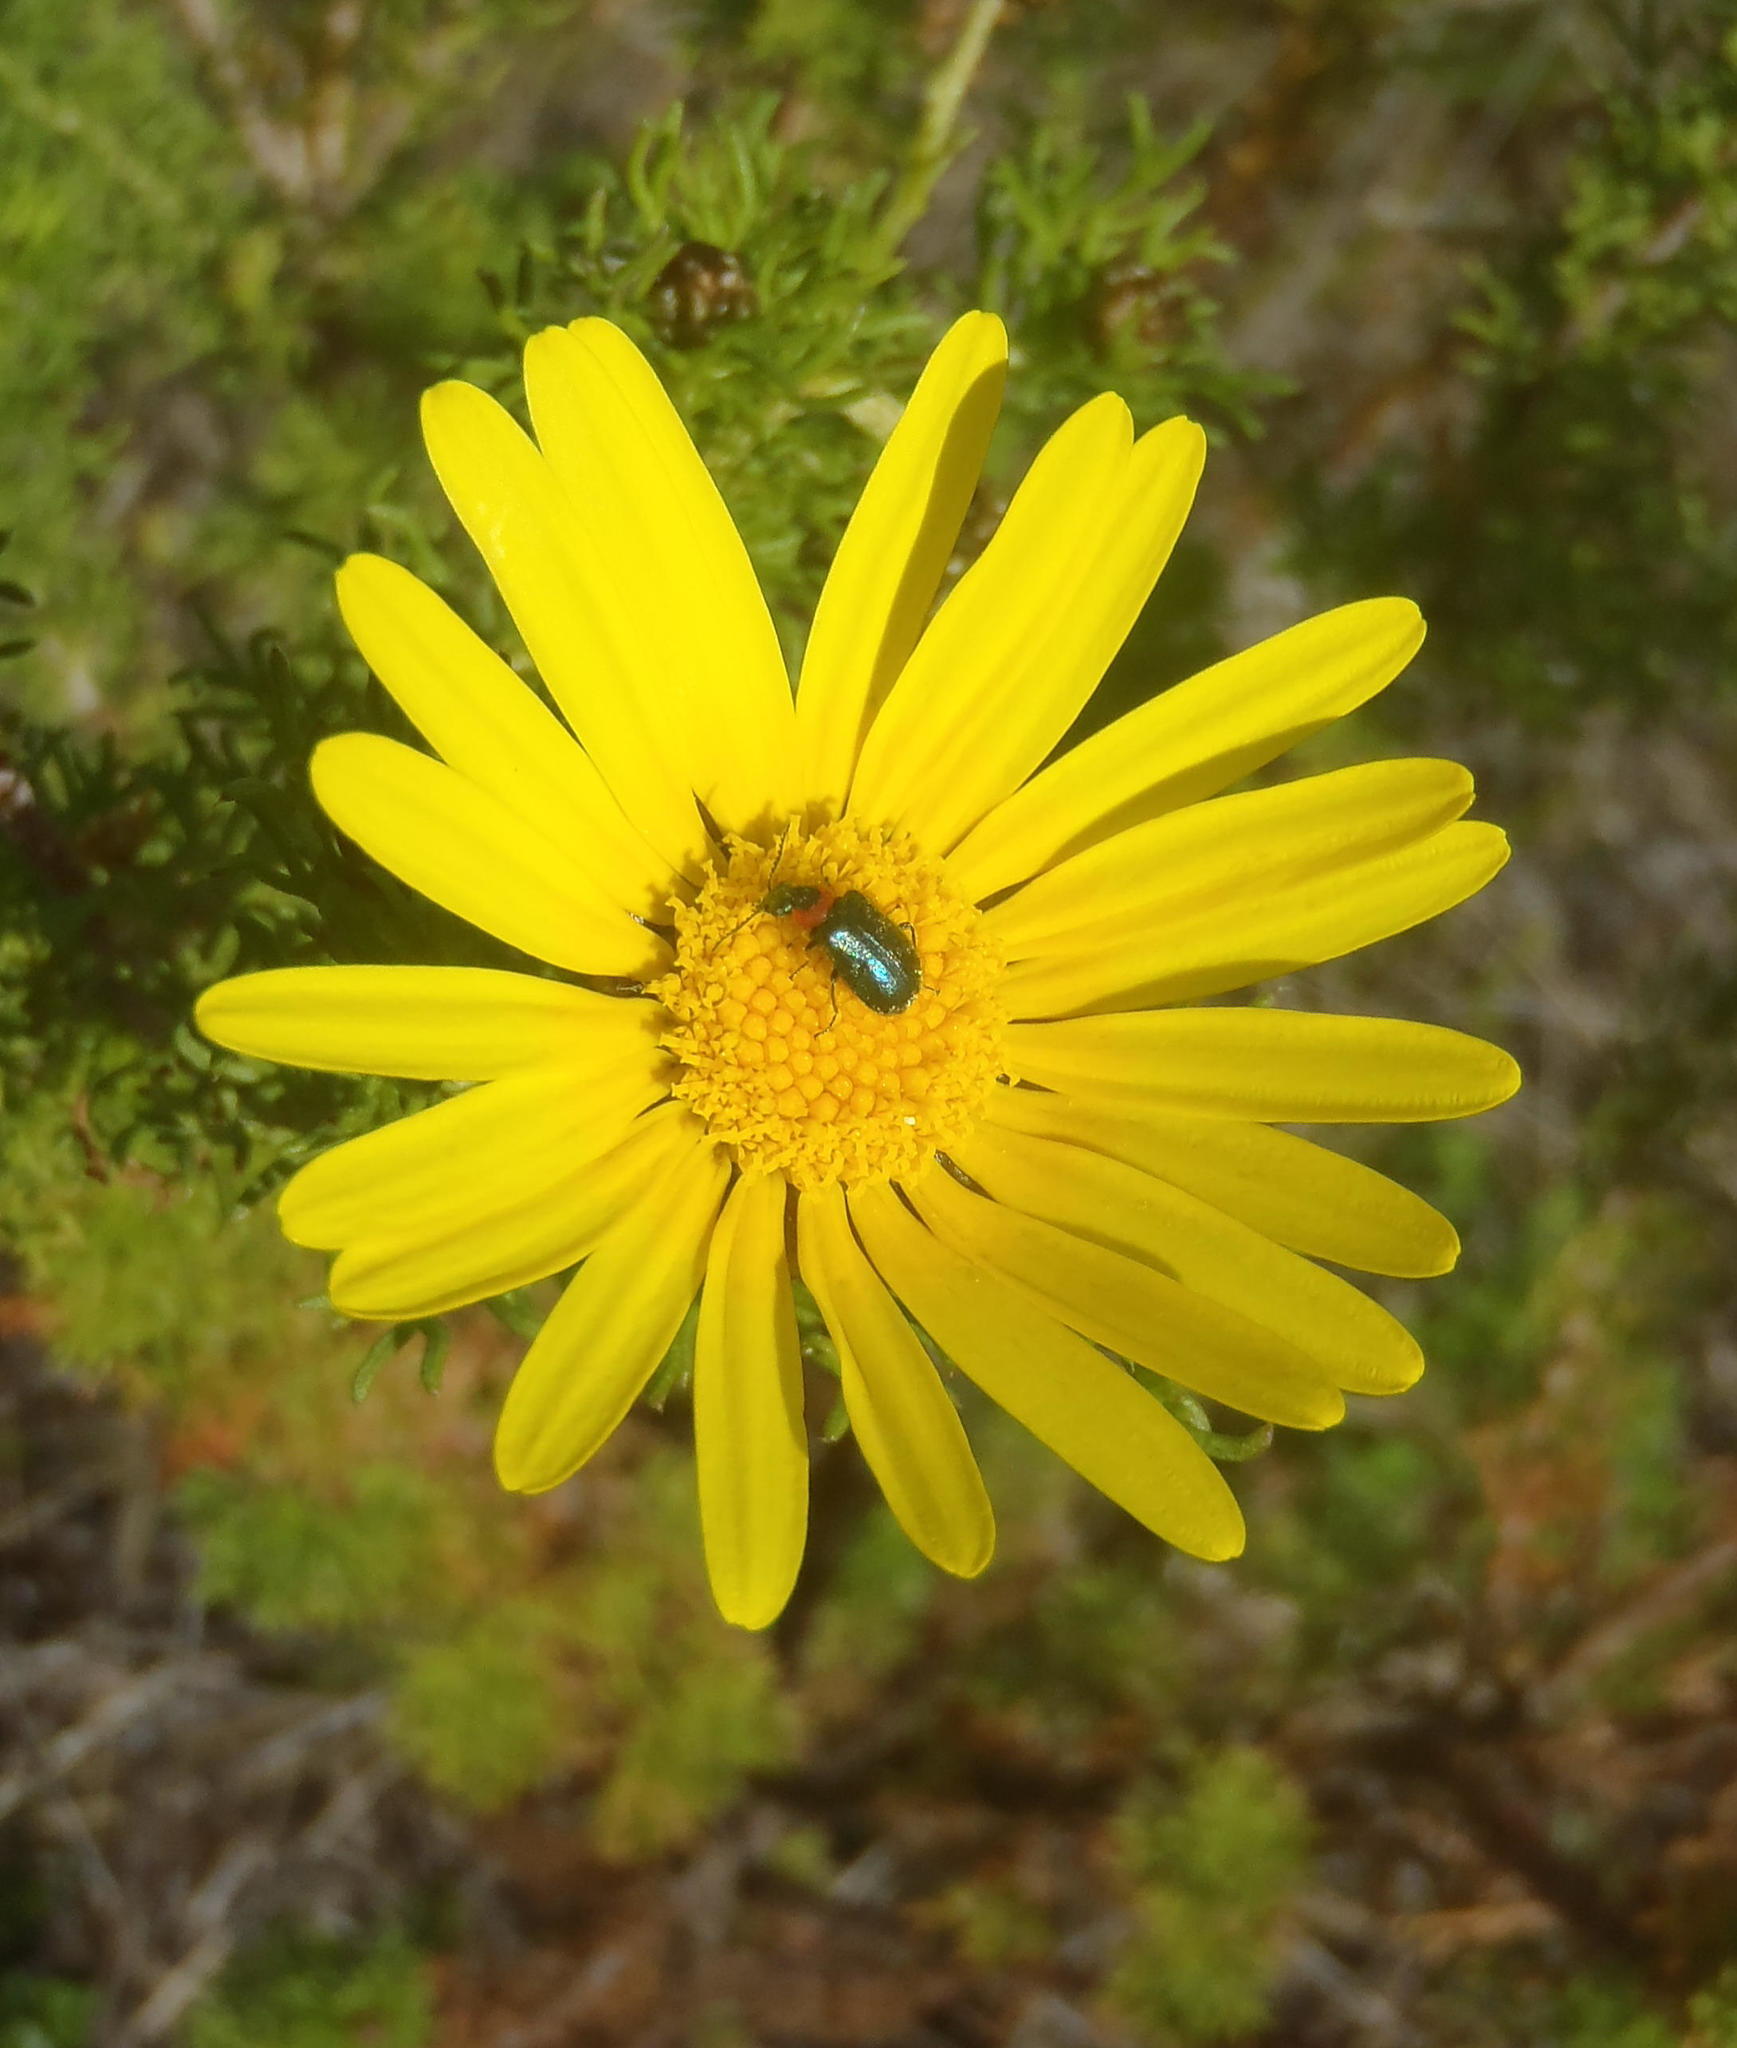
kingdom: Plantae
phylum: Tracheophyta
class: Magnoliopsida
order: Asterales
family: Asteraceae
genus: Ursinia
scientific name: Ursinia scariosa
